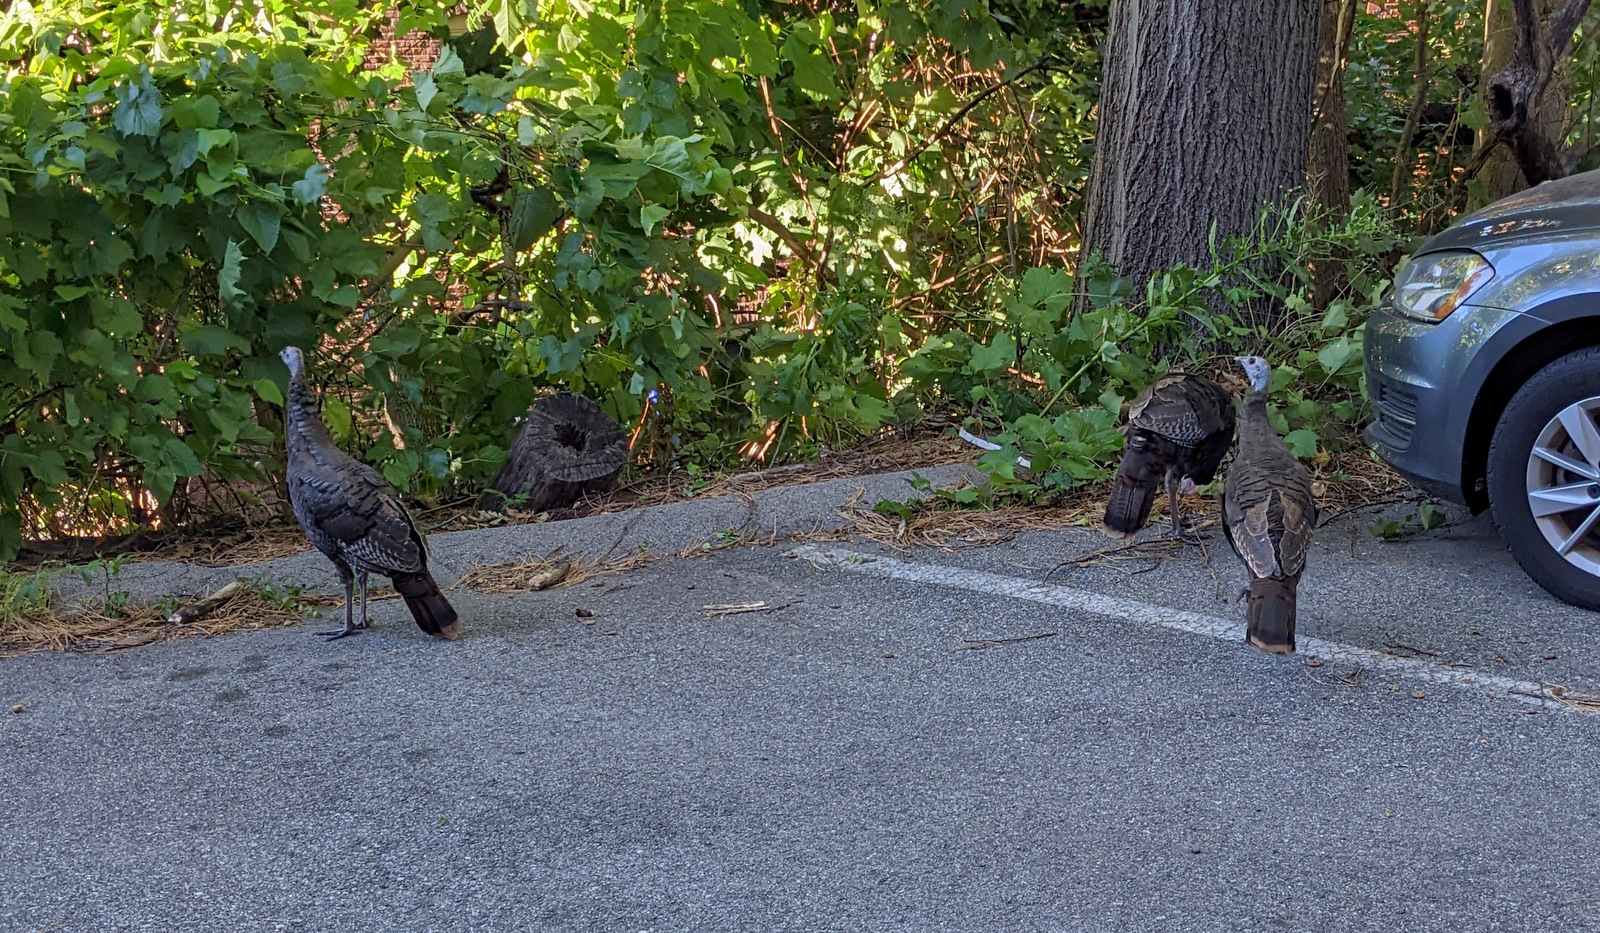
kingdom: Animalia
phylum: Chordata
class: Aves
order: Galliformes
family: Phasianidae
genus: Meleagris
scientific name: Meleagris gallopavo
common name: Wild turkey
